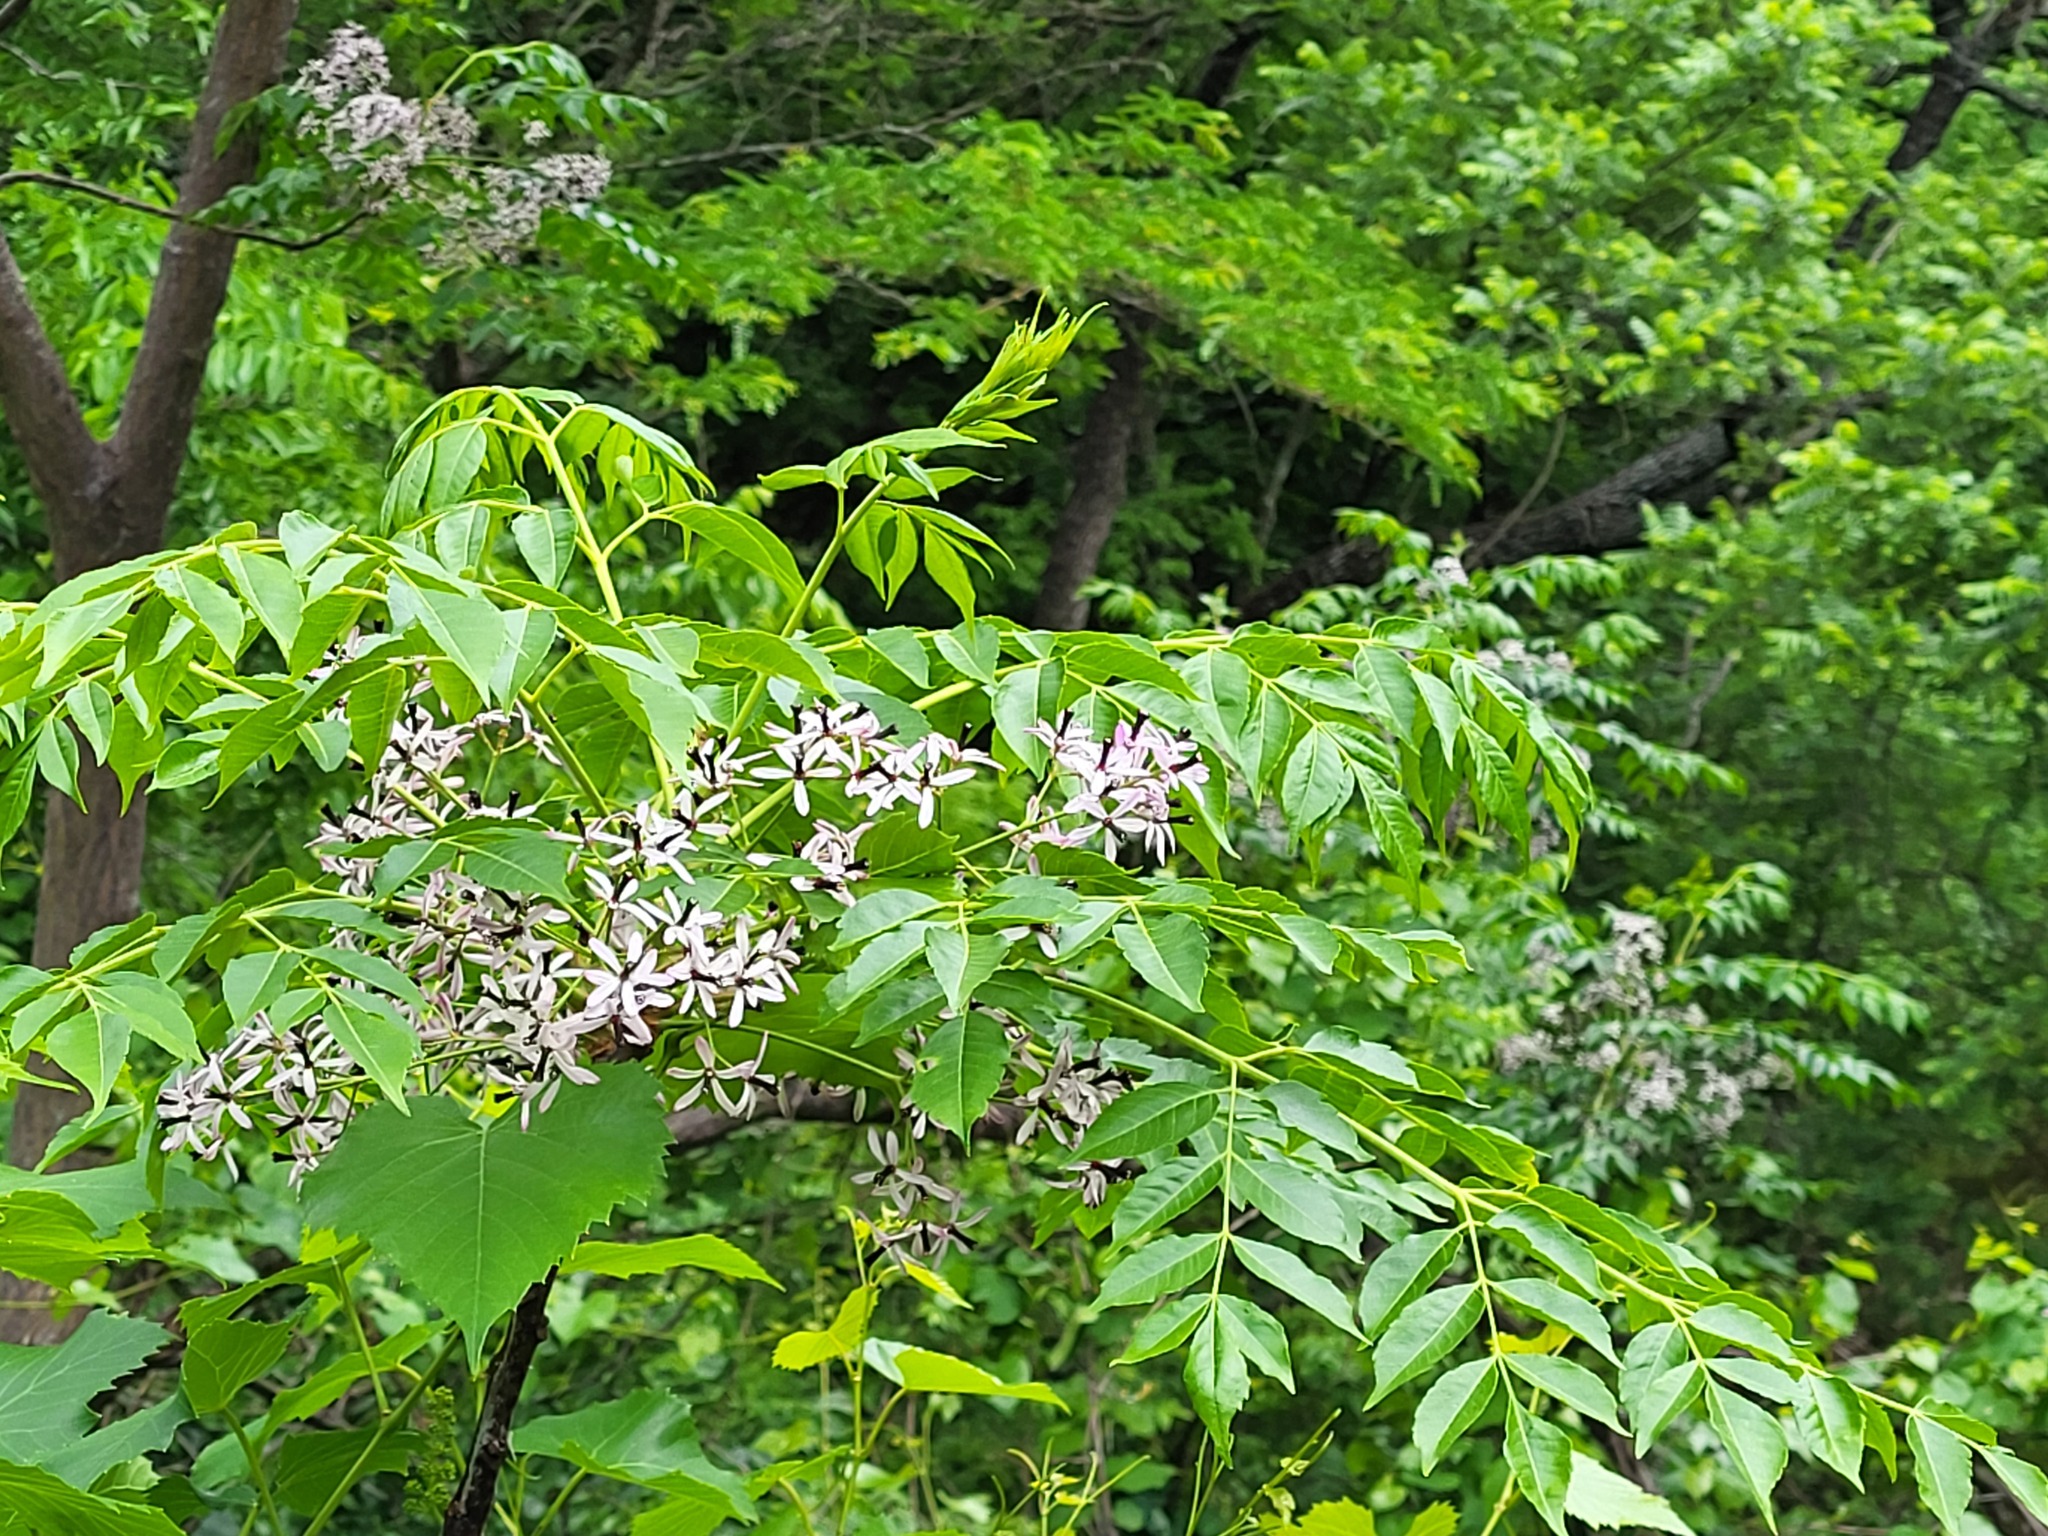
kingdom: Plantae
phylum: Tracheophyta
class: Magnoliopsida
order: Sapindales
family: Meliaceae
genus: Melia
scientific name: Melia azedarach
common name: Chinaberrytree
